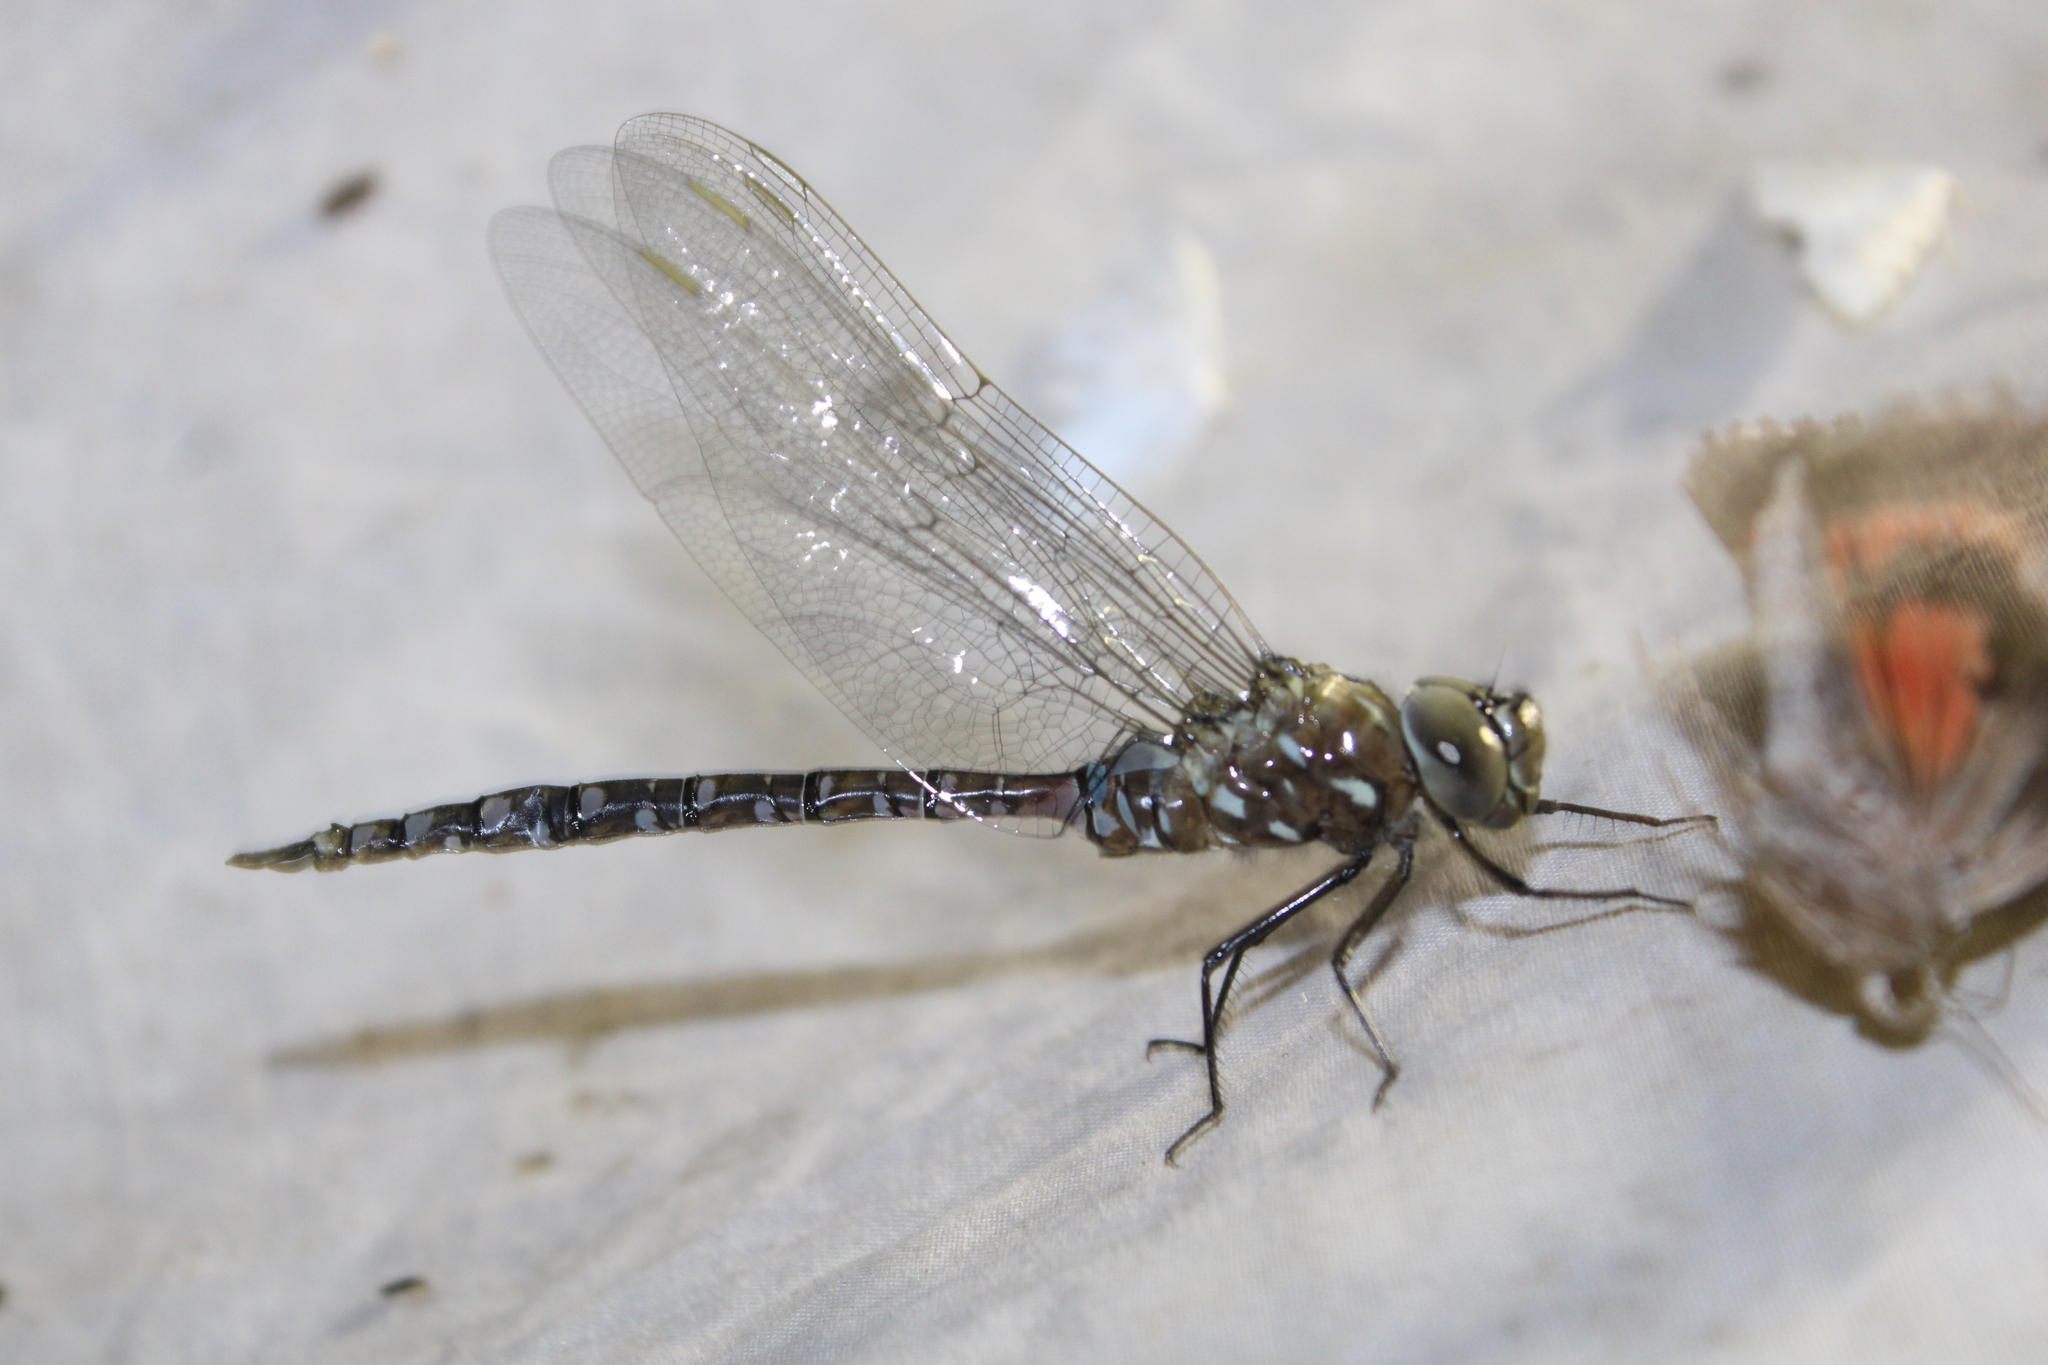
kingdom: Animalia
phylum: Arthropoda
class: Insecta
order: Odonata
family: Aeshnidae
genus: Aeshna
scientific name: Aeshna interrupta
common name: Variable darner
